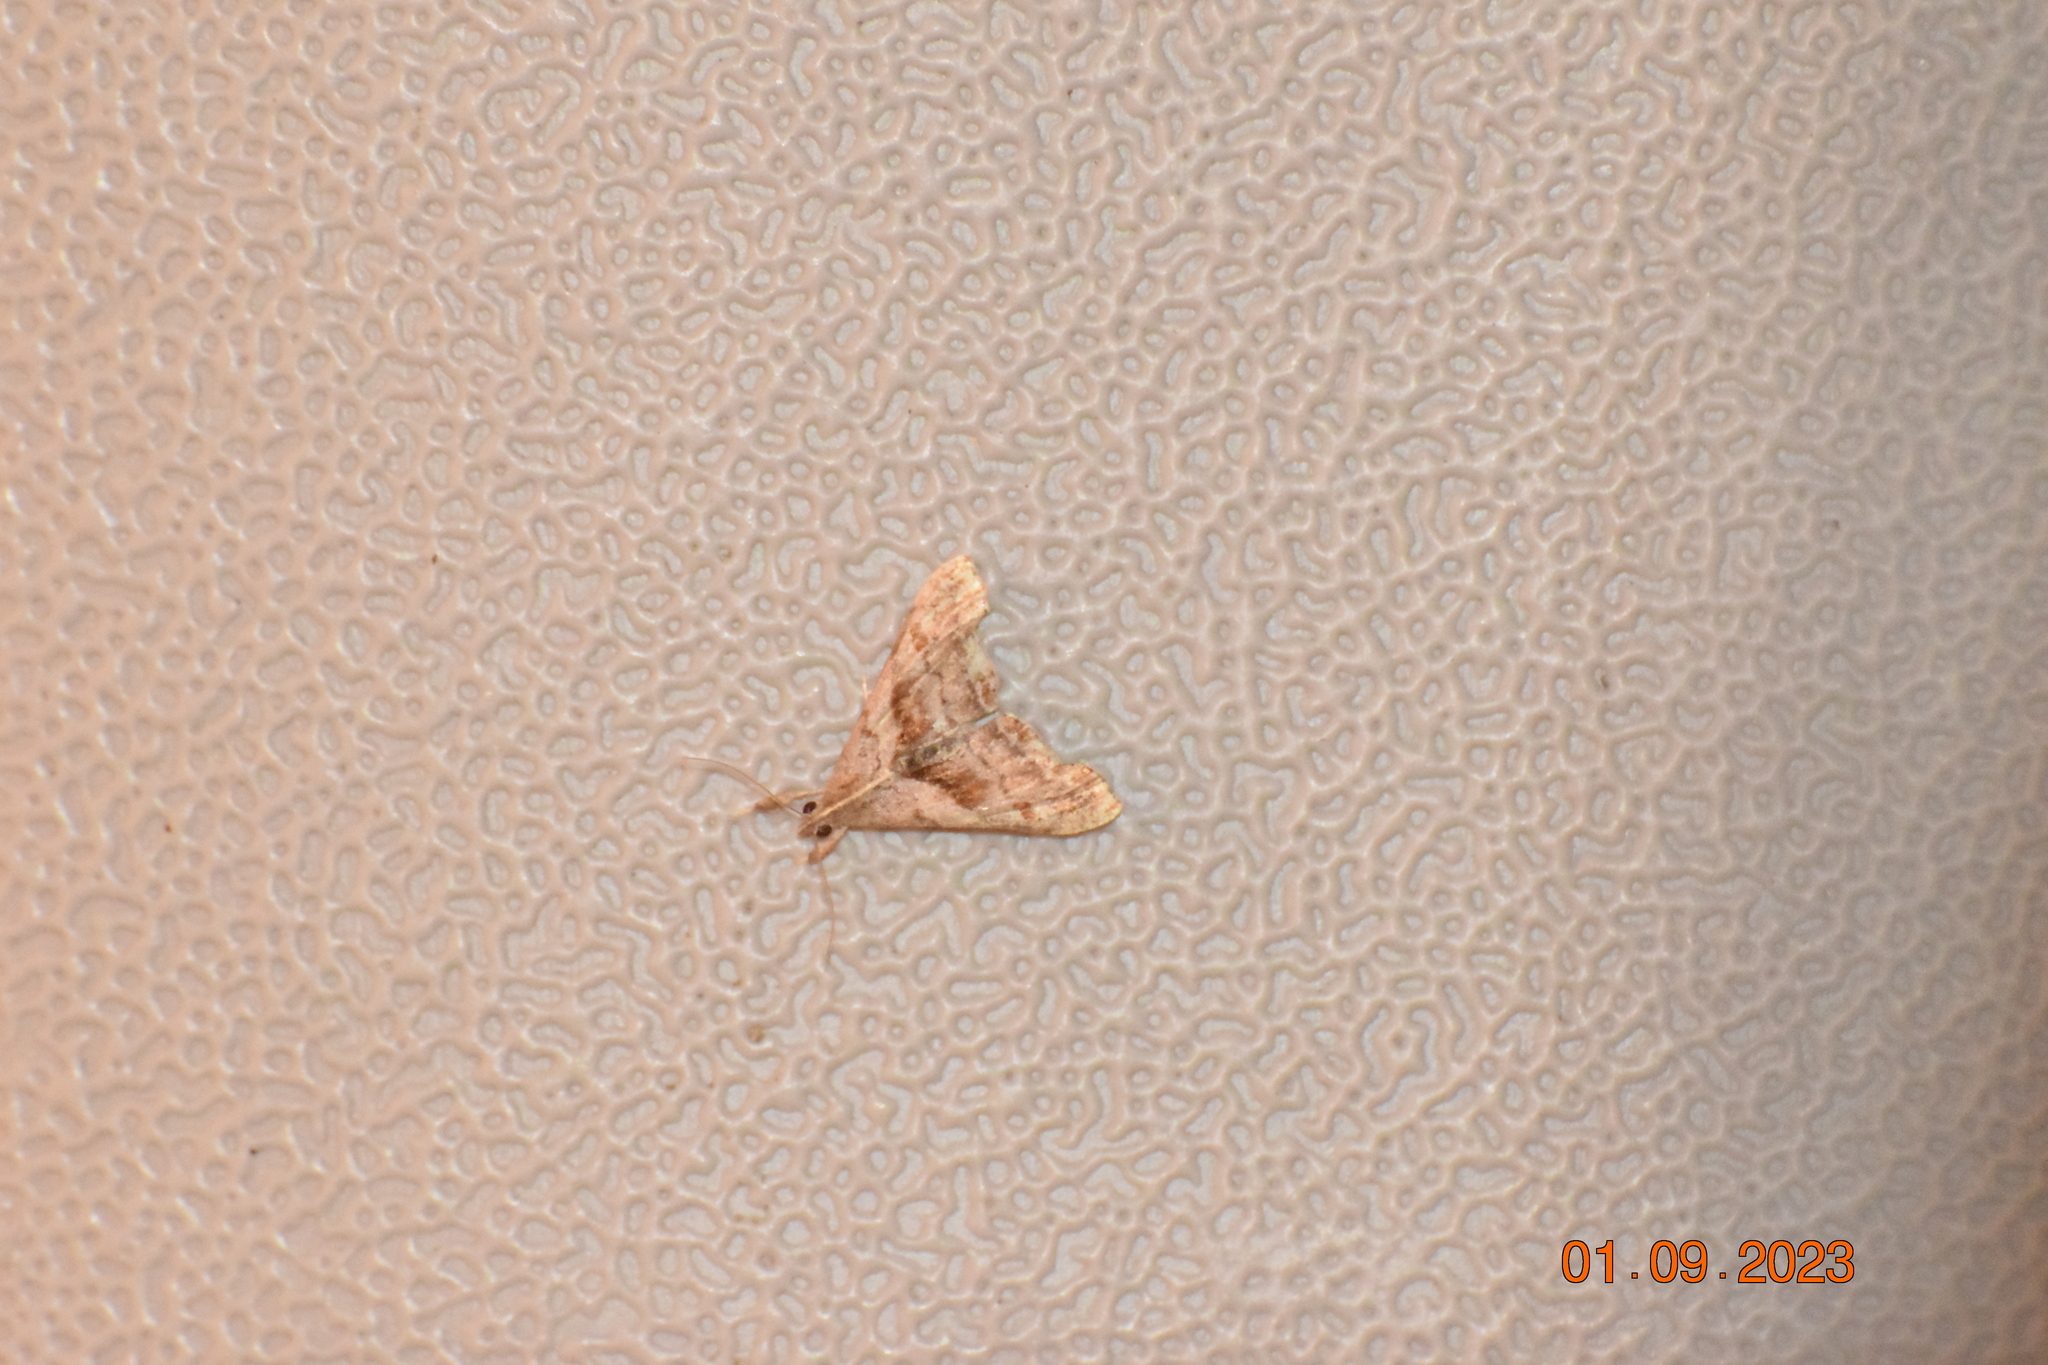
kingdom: Animalia
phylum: Arthropoda
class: Insecta
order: Lepidoptera
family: Erebidae
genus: Palthis
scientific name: Palthis angulalis
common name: Dark-spotted palthis moth
